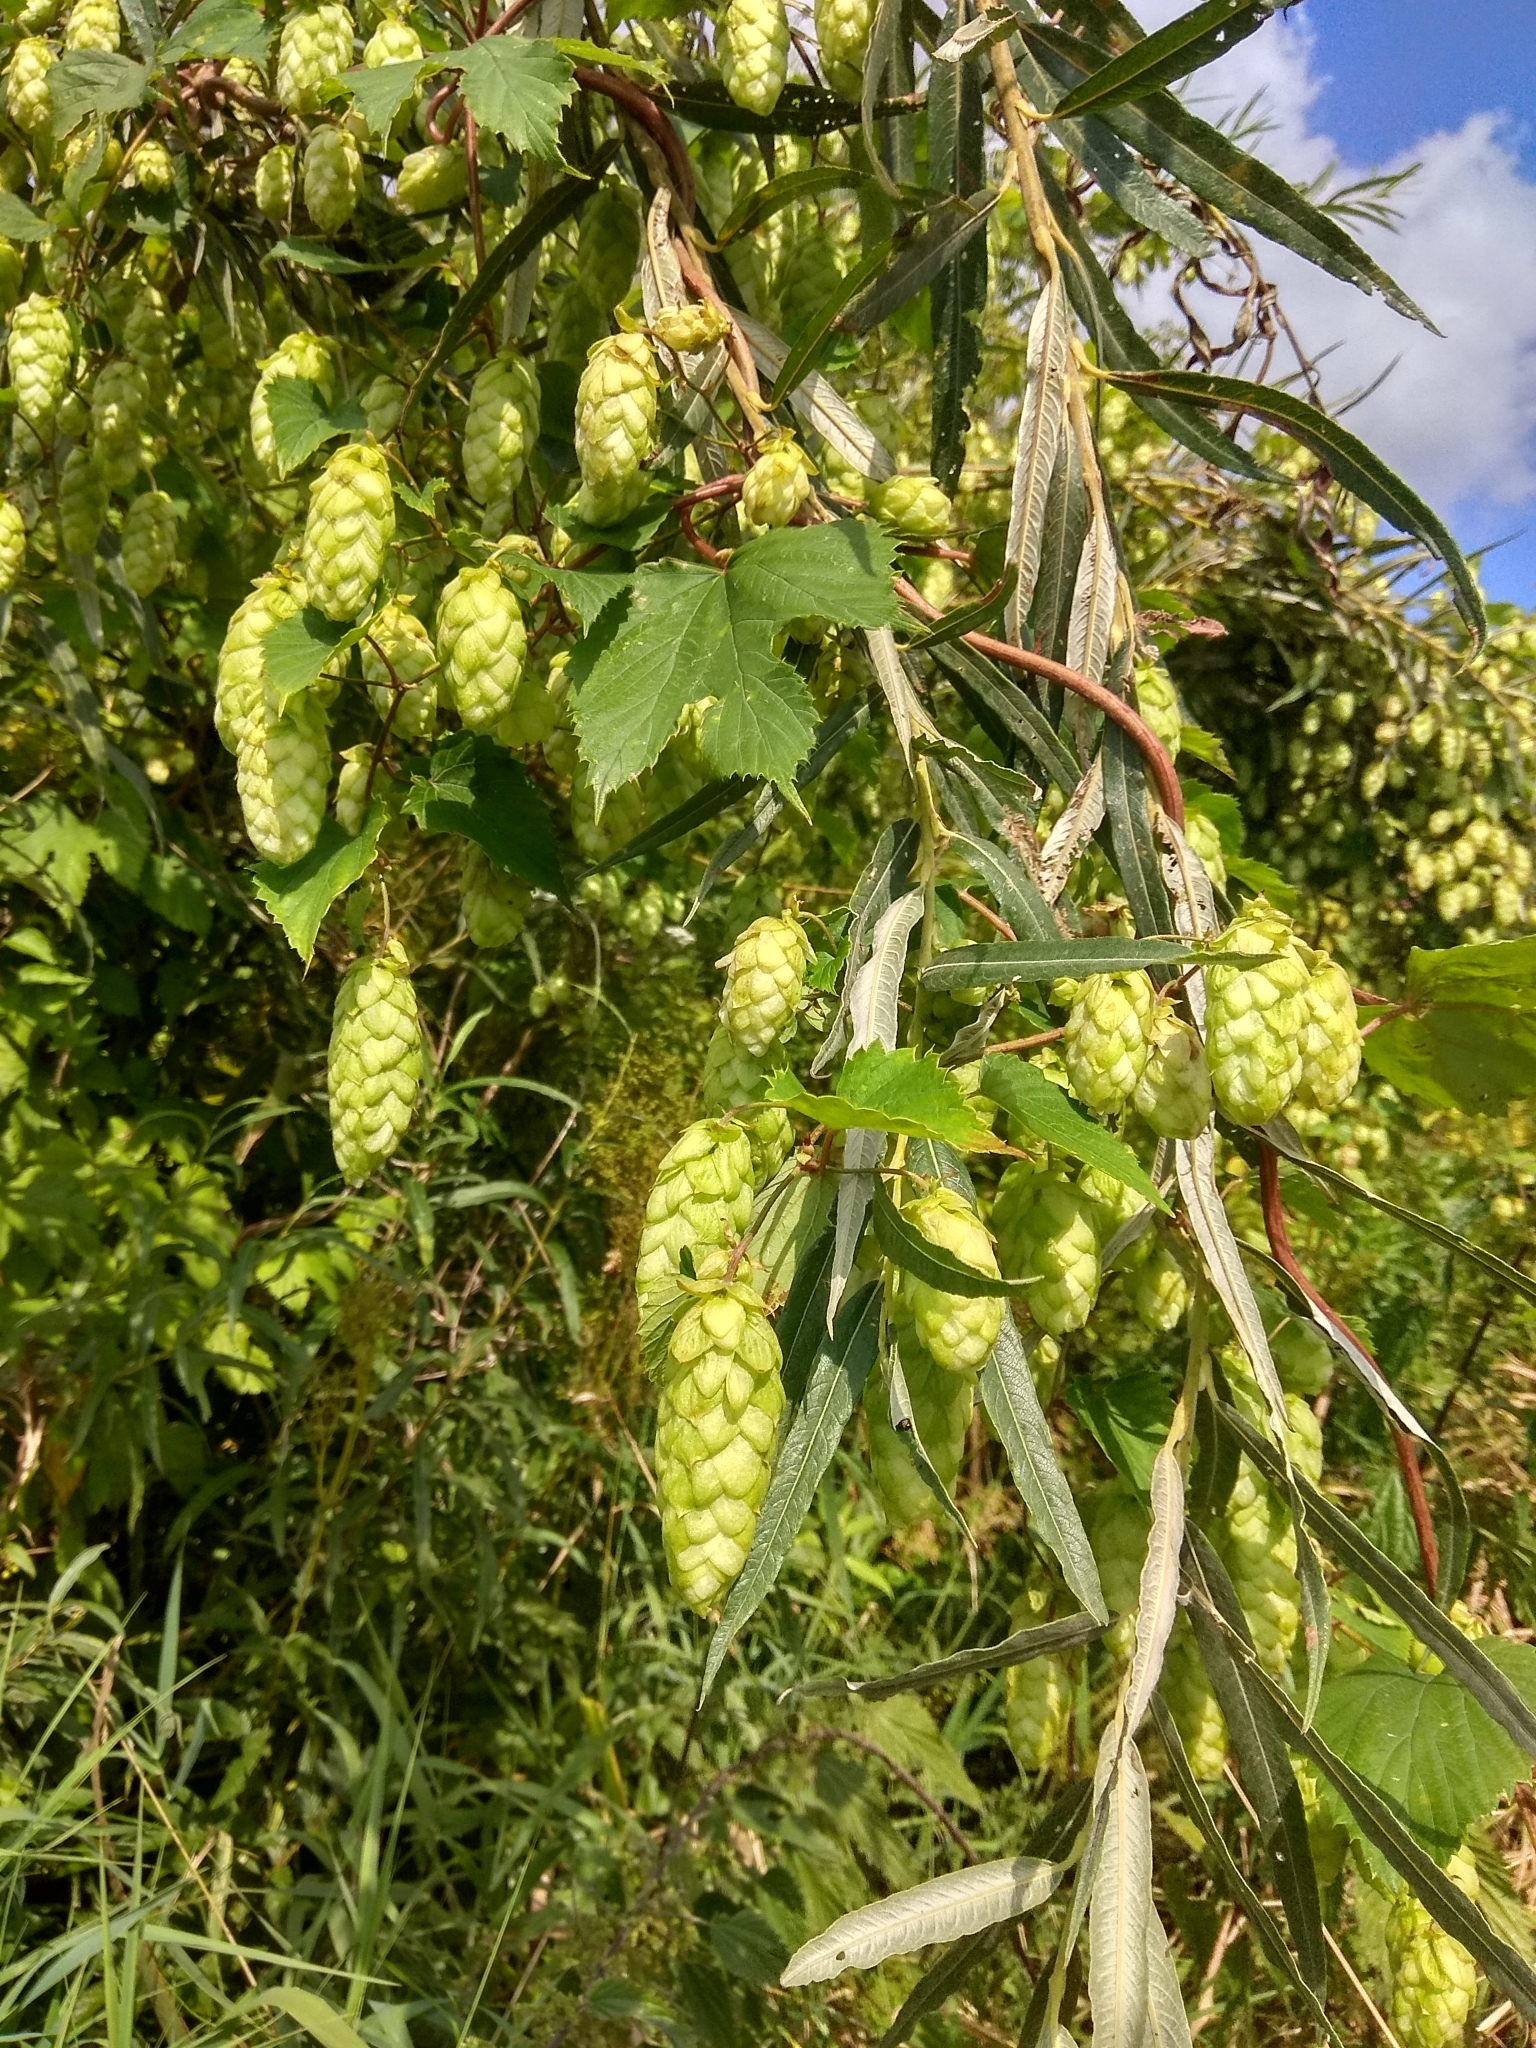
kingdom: Plantae
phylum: Tracheophyta
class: Magnoliopsida
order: Rosales
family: Cannabaceae
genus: Humulus
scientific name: Humulus lupulus
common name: Hop
